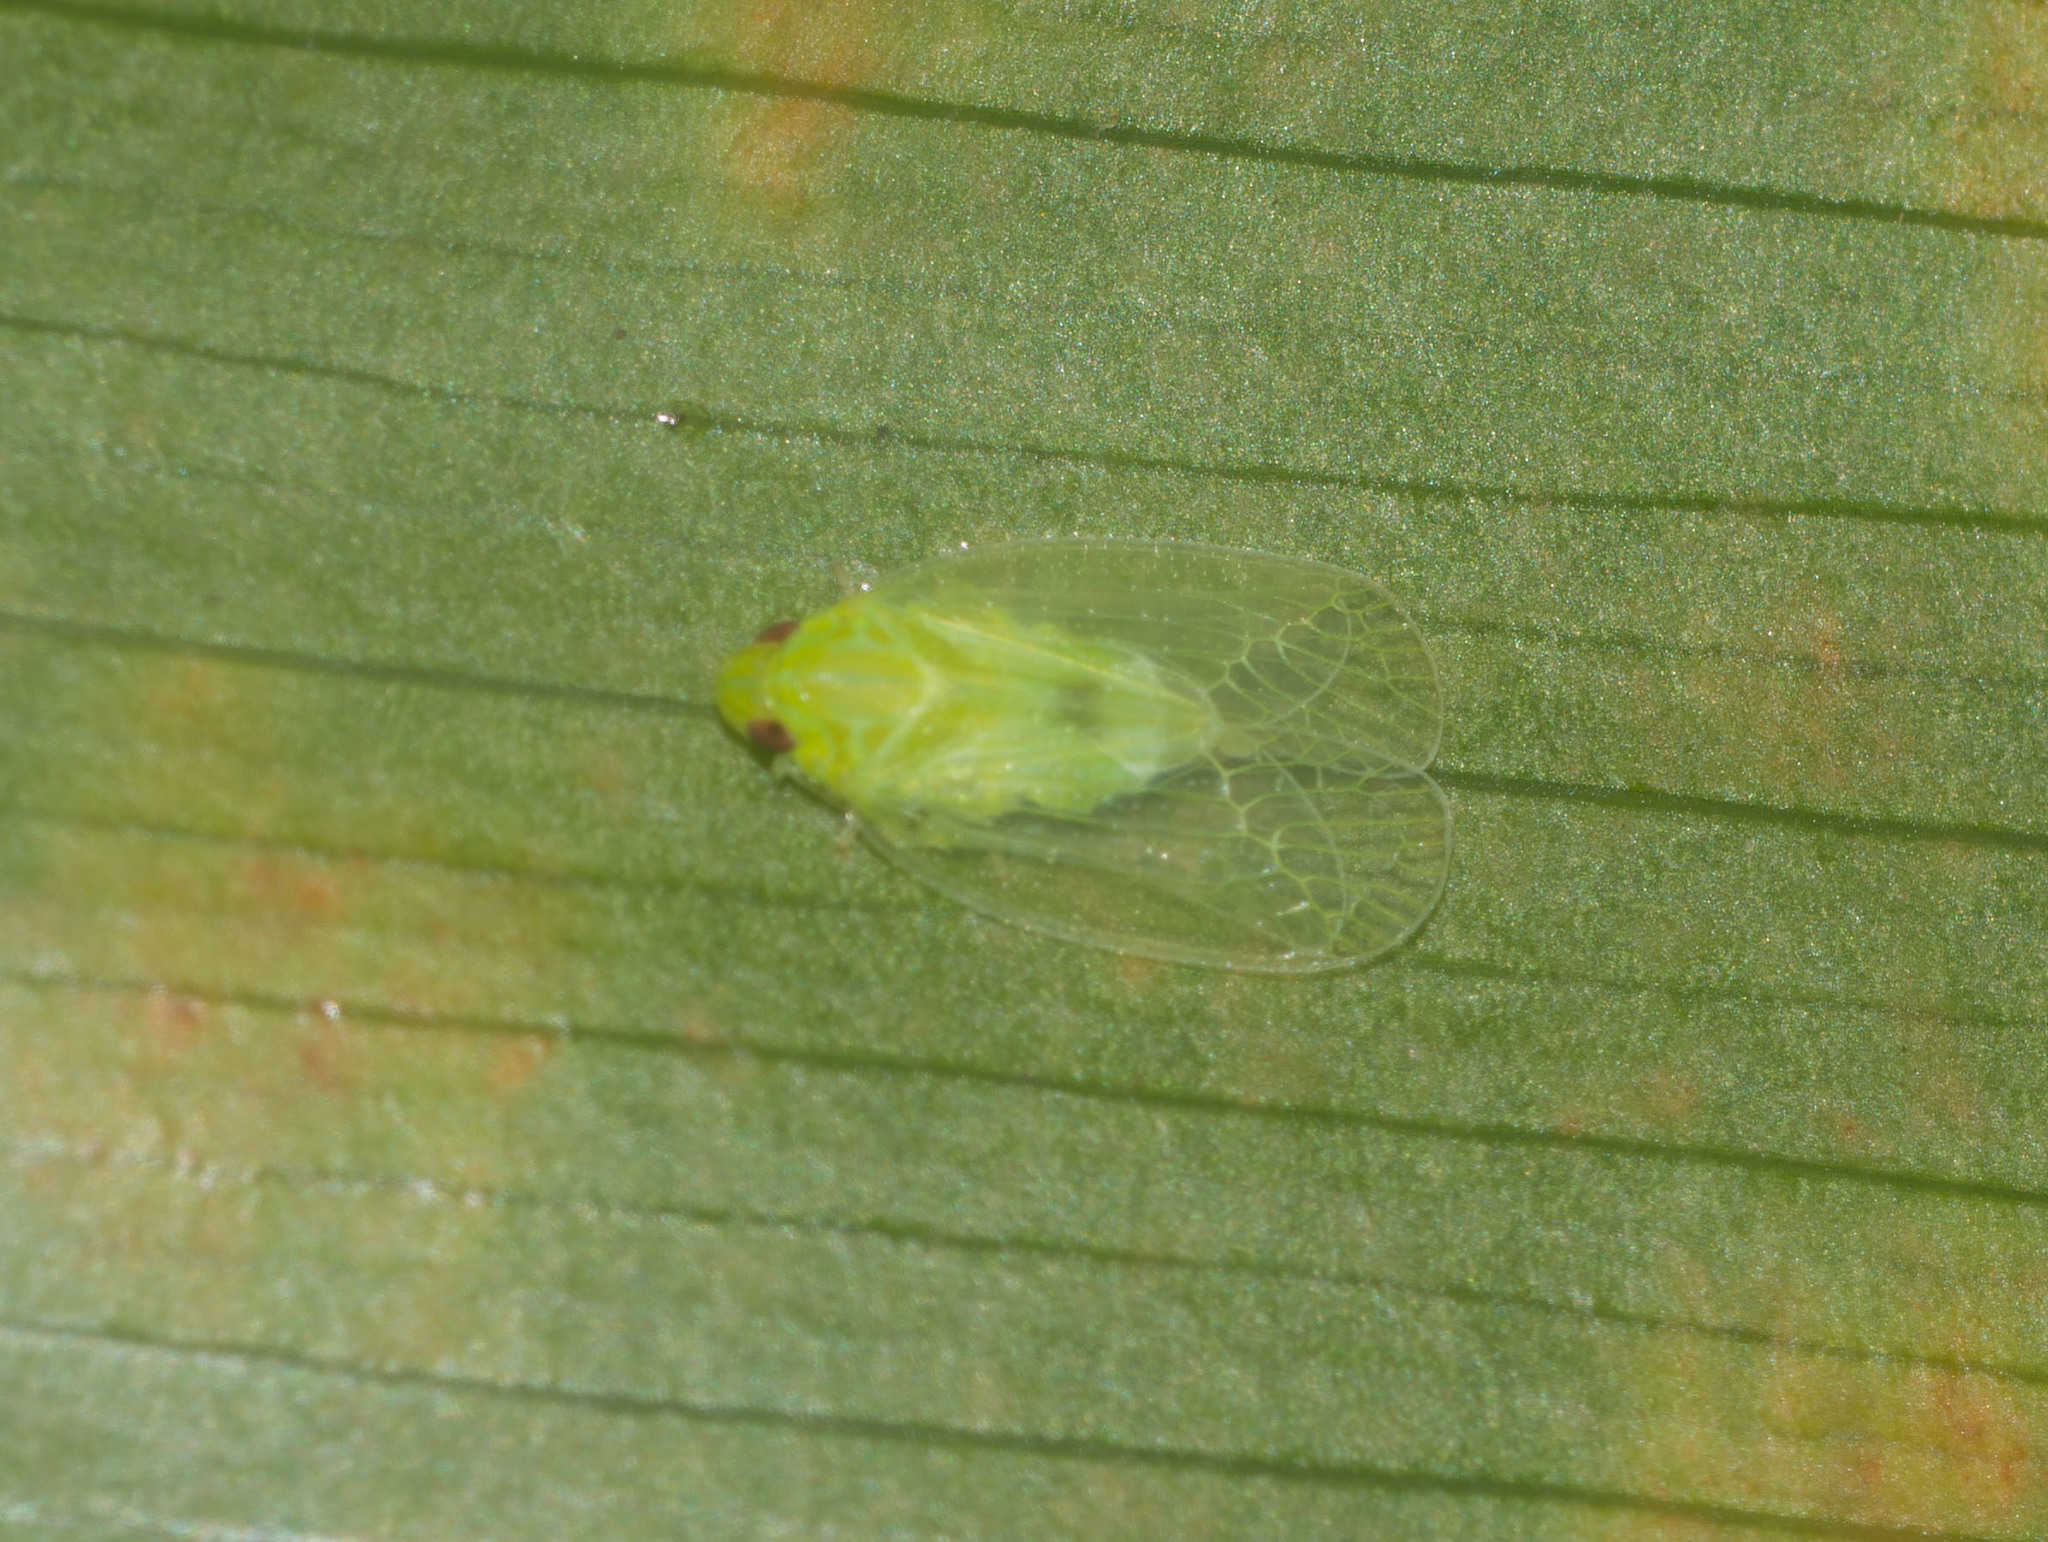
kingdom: Animalia
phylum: Arthropoda
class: Insecta
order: Hemiptera
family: Tropiduchidae
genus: Kallitaxila
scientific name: Kallitaxila granulata
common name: Planthopper
